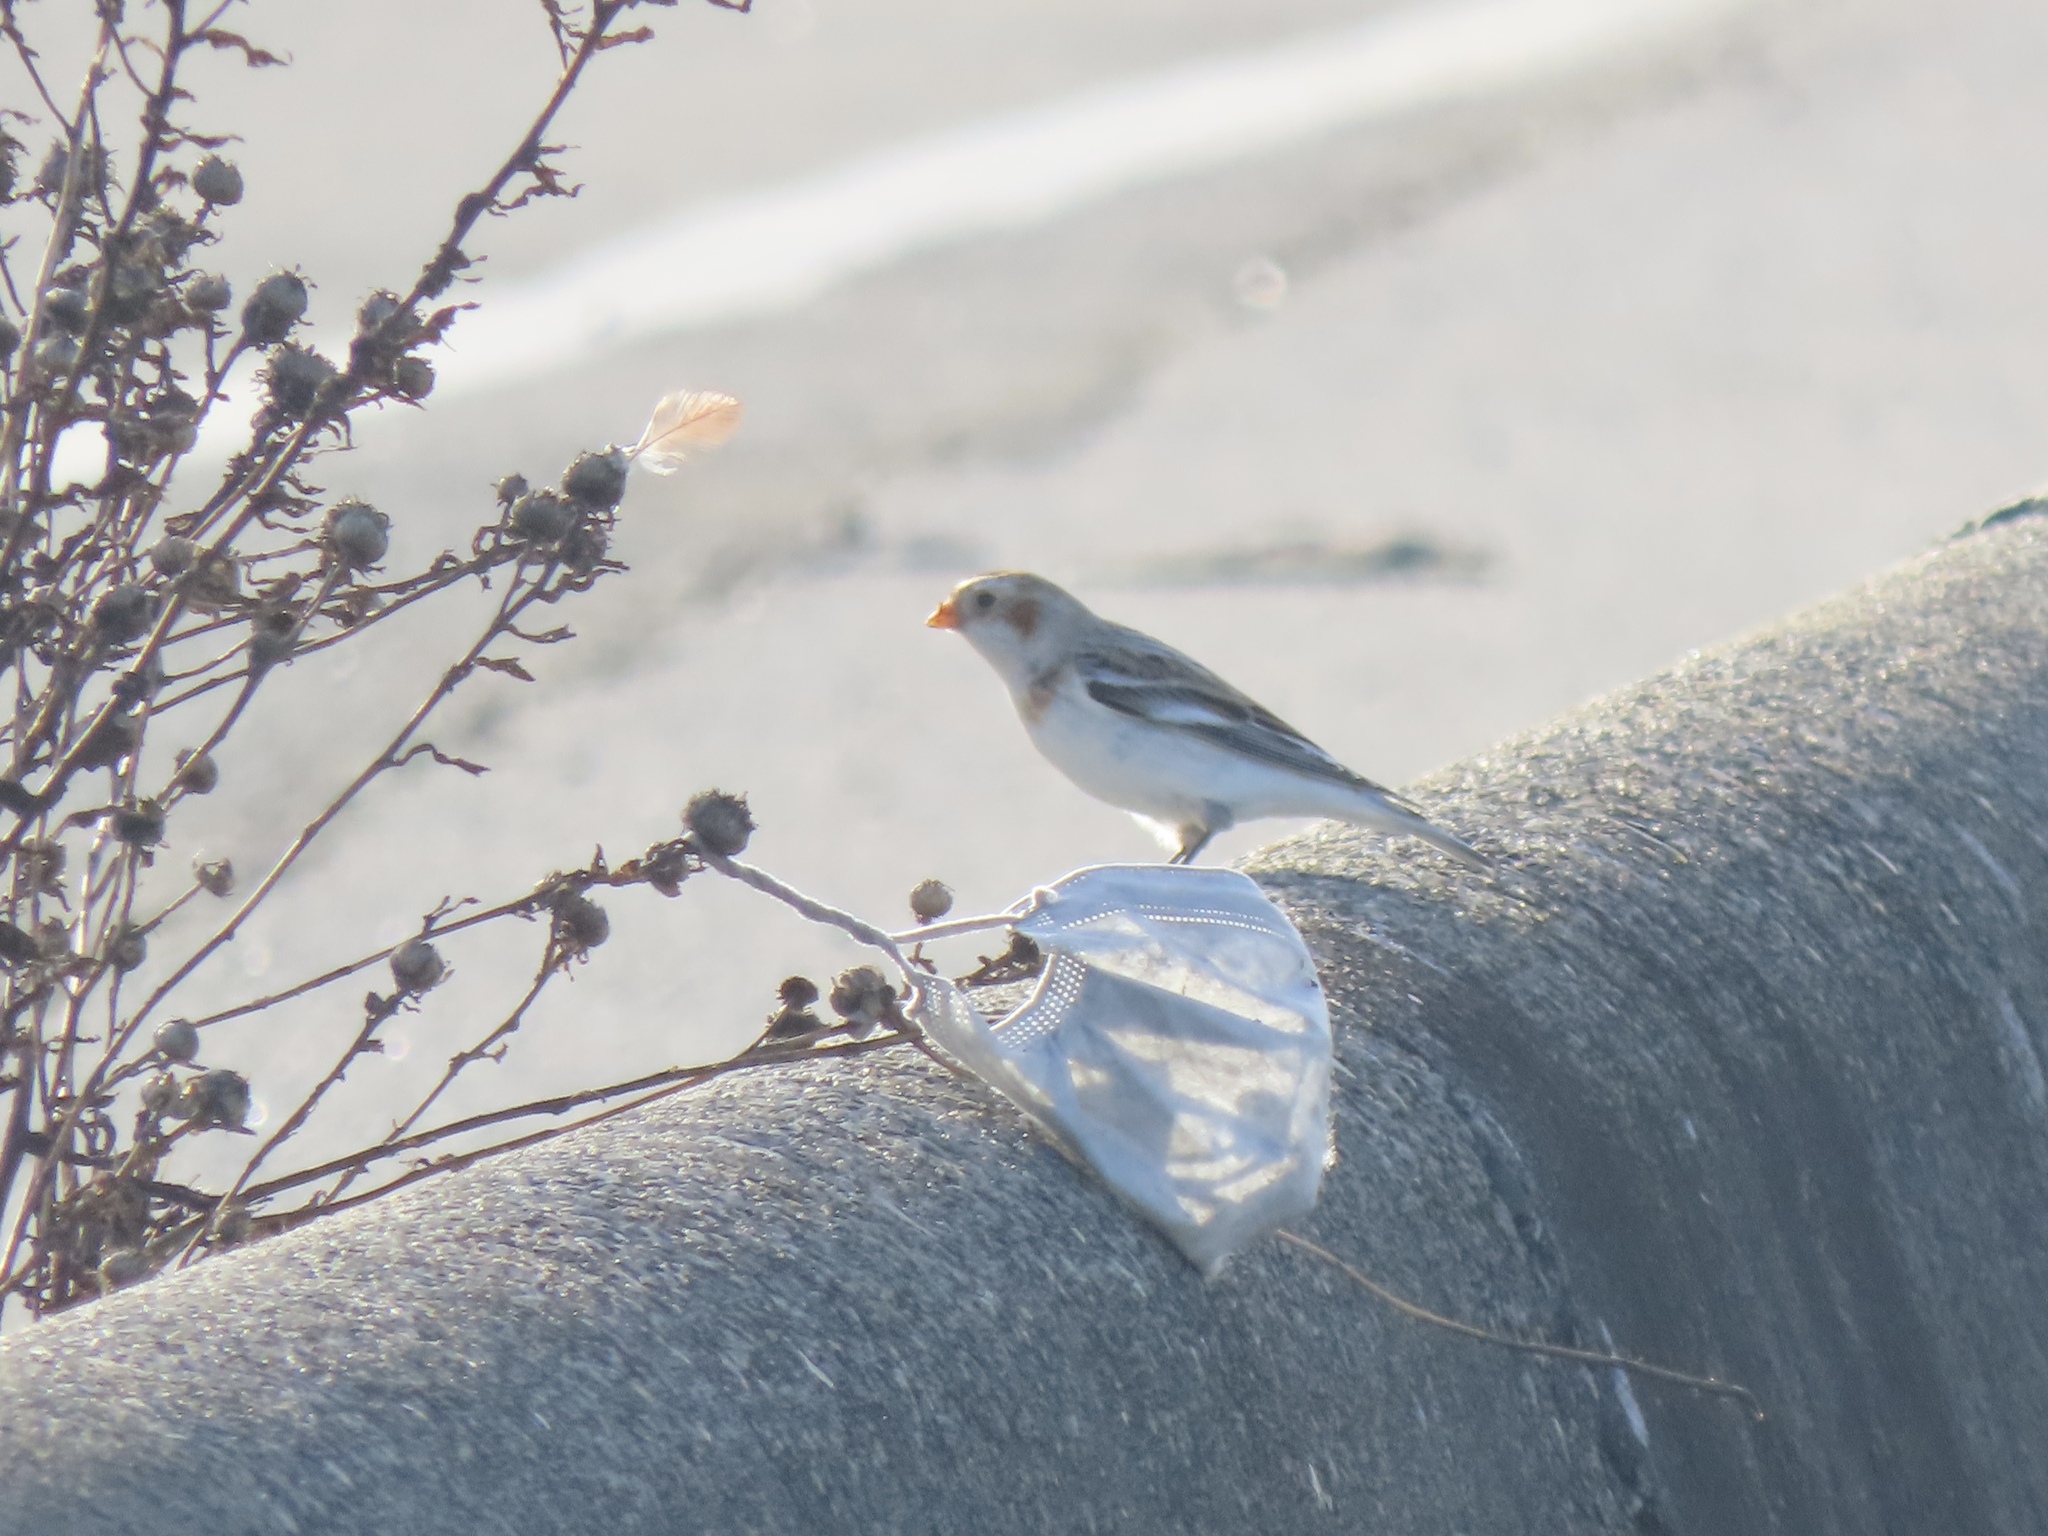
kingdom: Animalia
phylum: Chordata
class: Aves
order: Passeriformes
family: Calcariidae
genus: Plectrophenax
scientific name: Plectrophenax nivalis
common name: Snow bunting
